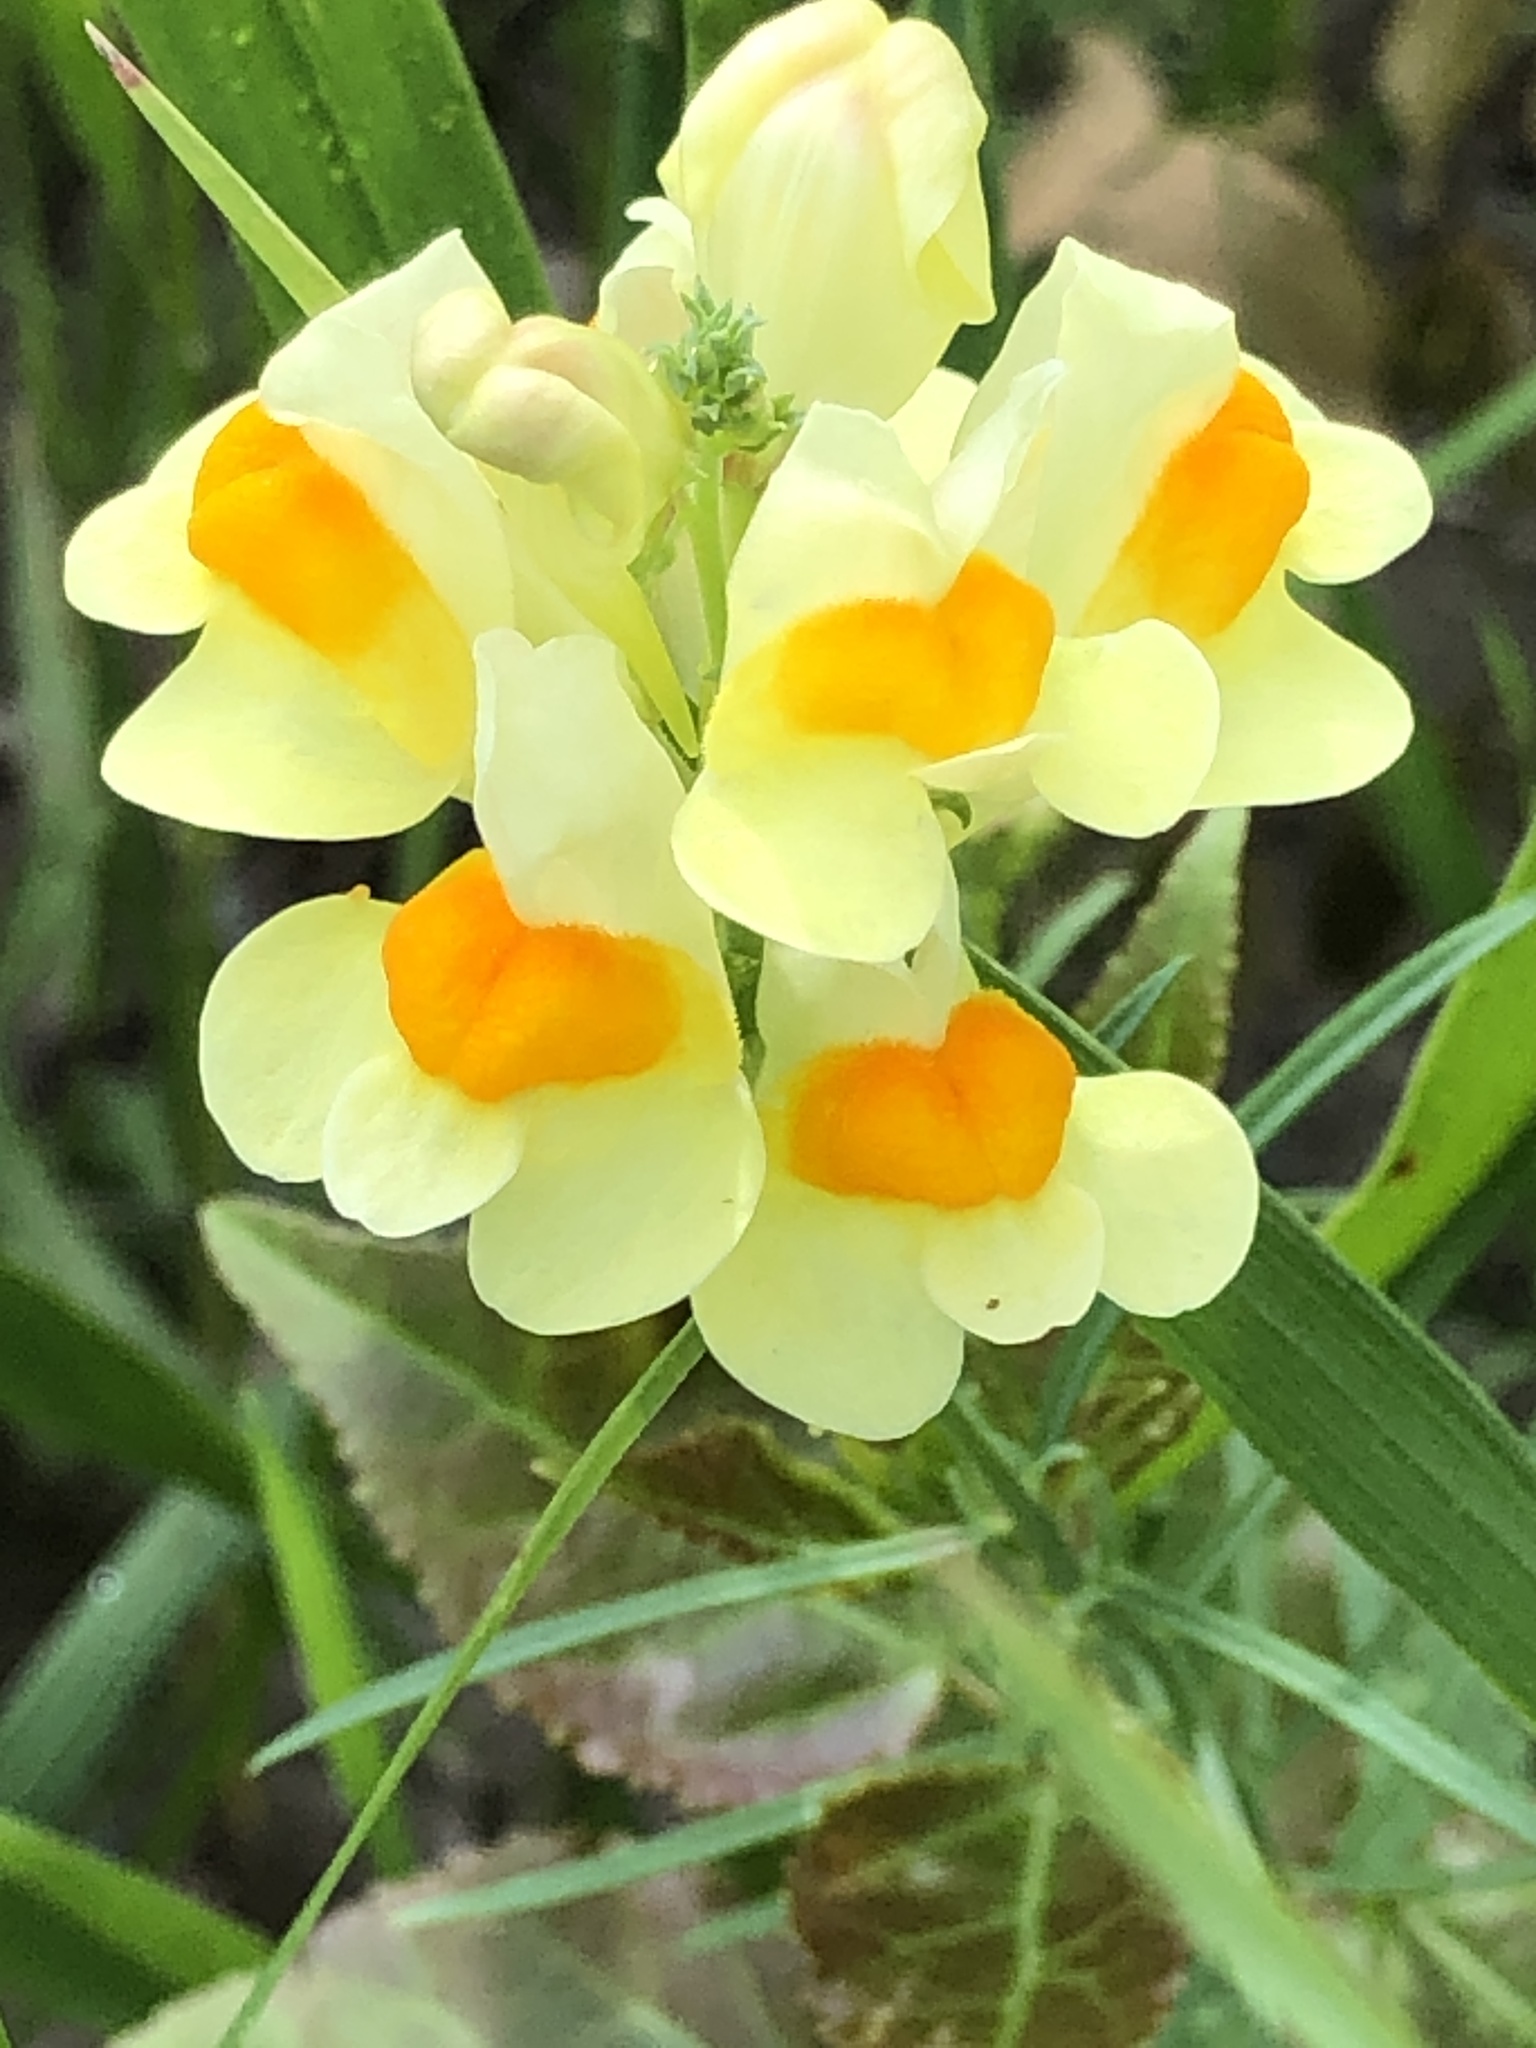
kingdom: Plantae
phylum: Tracheophyta
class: Magnoliopsida
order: Lamiales
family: Plantaginaceae
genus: Linaria
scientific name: Linaria vulgaris
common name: Butter and eggs
